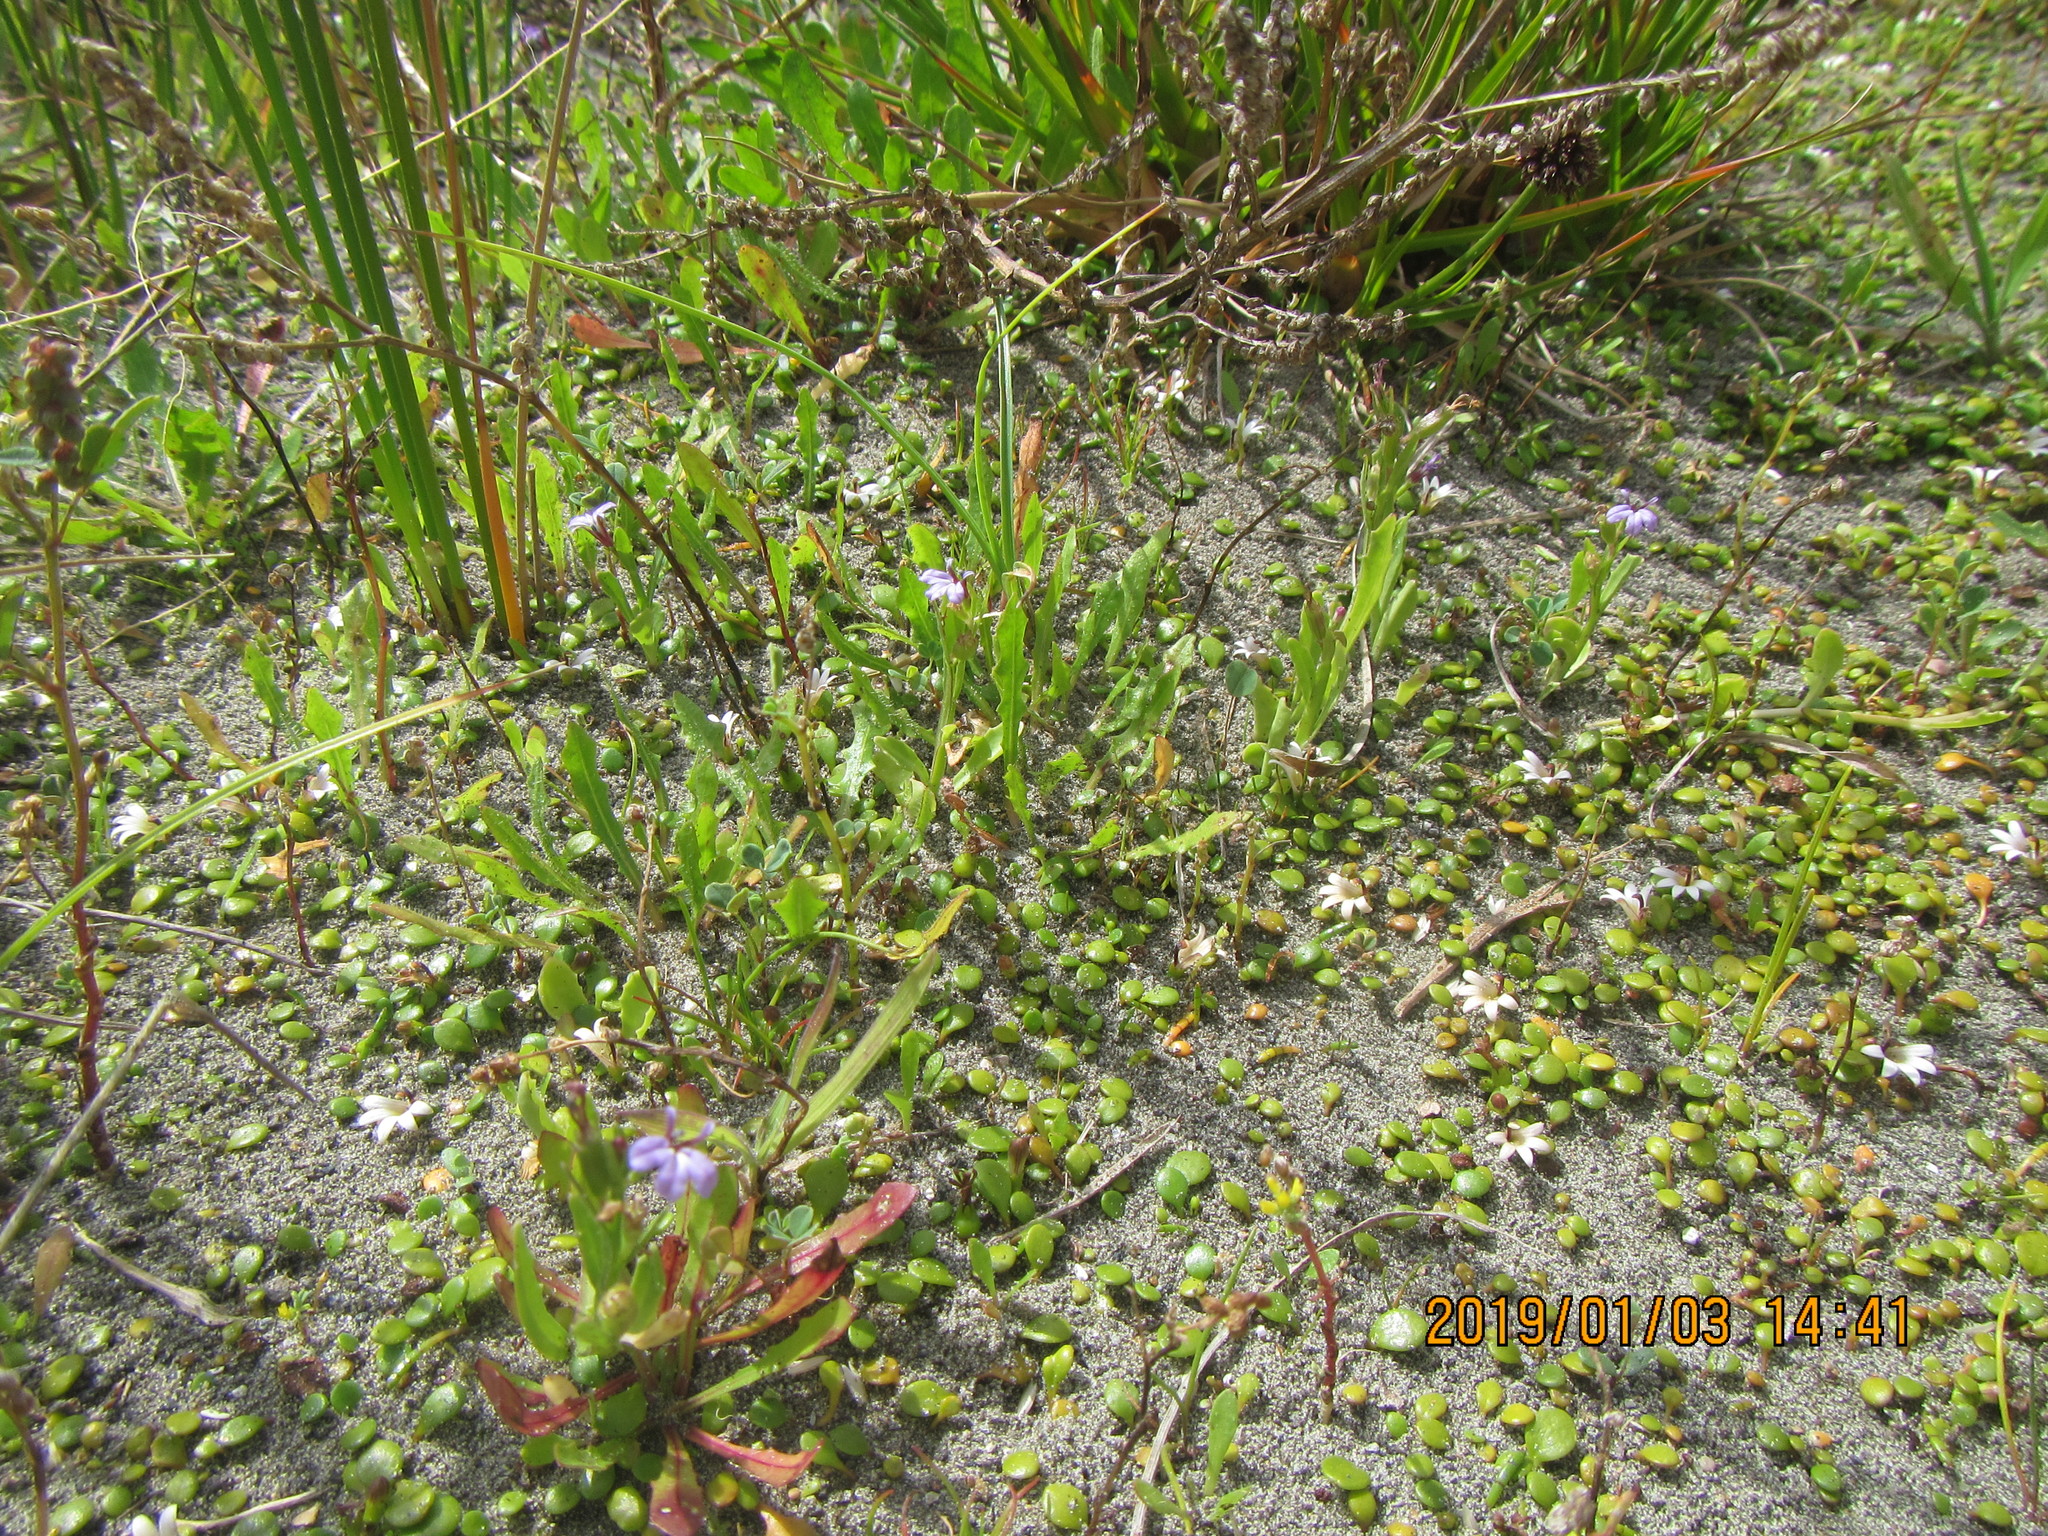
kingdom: Plantae
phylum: Tracheophyta
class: Magnoliopsida
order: Asterales
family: Campanulaceae
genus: Lobelia
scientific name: Lobelia anceps
